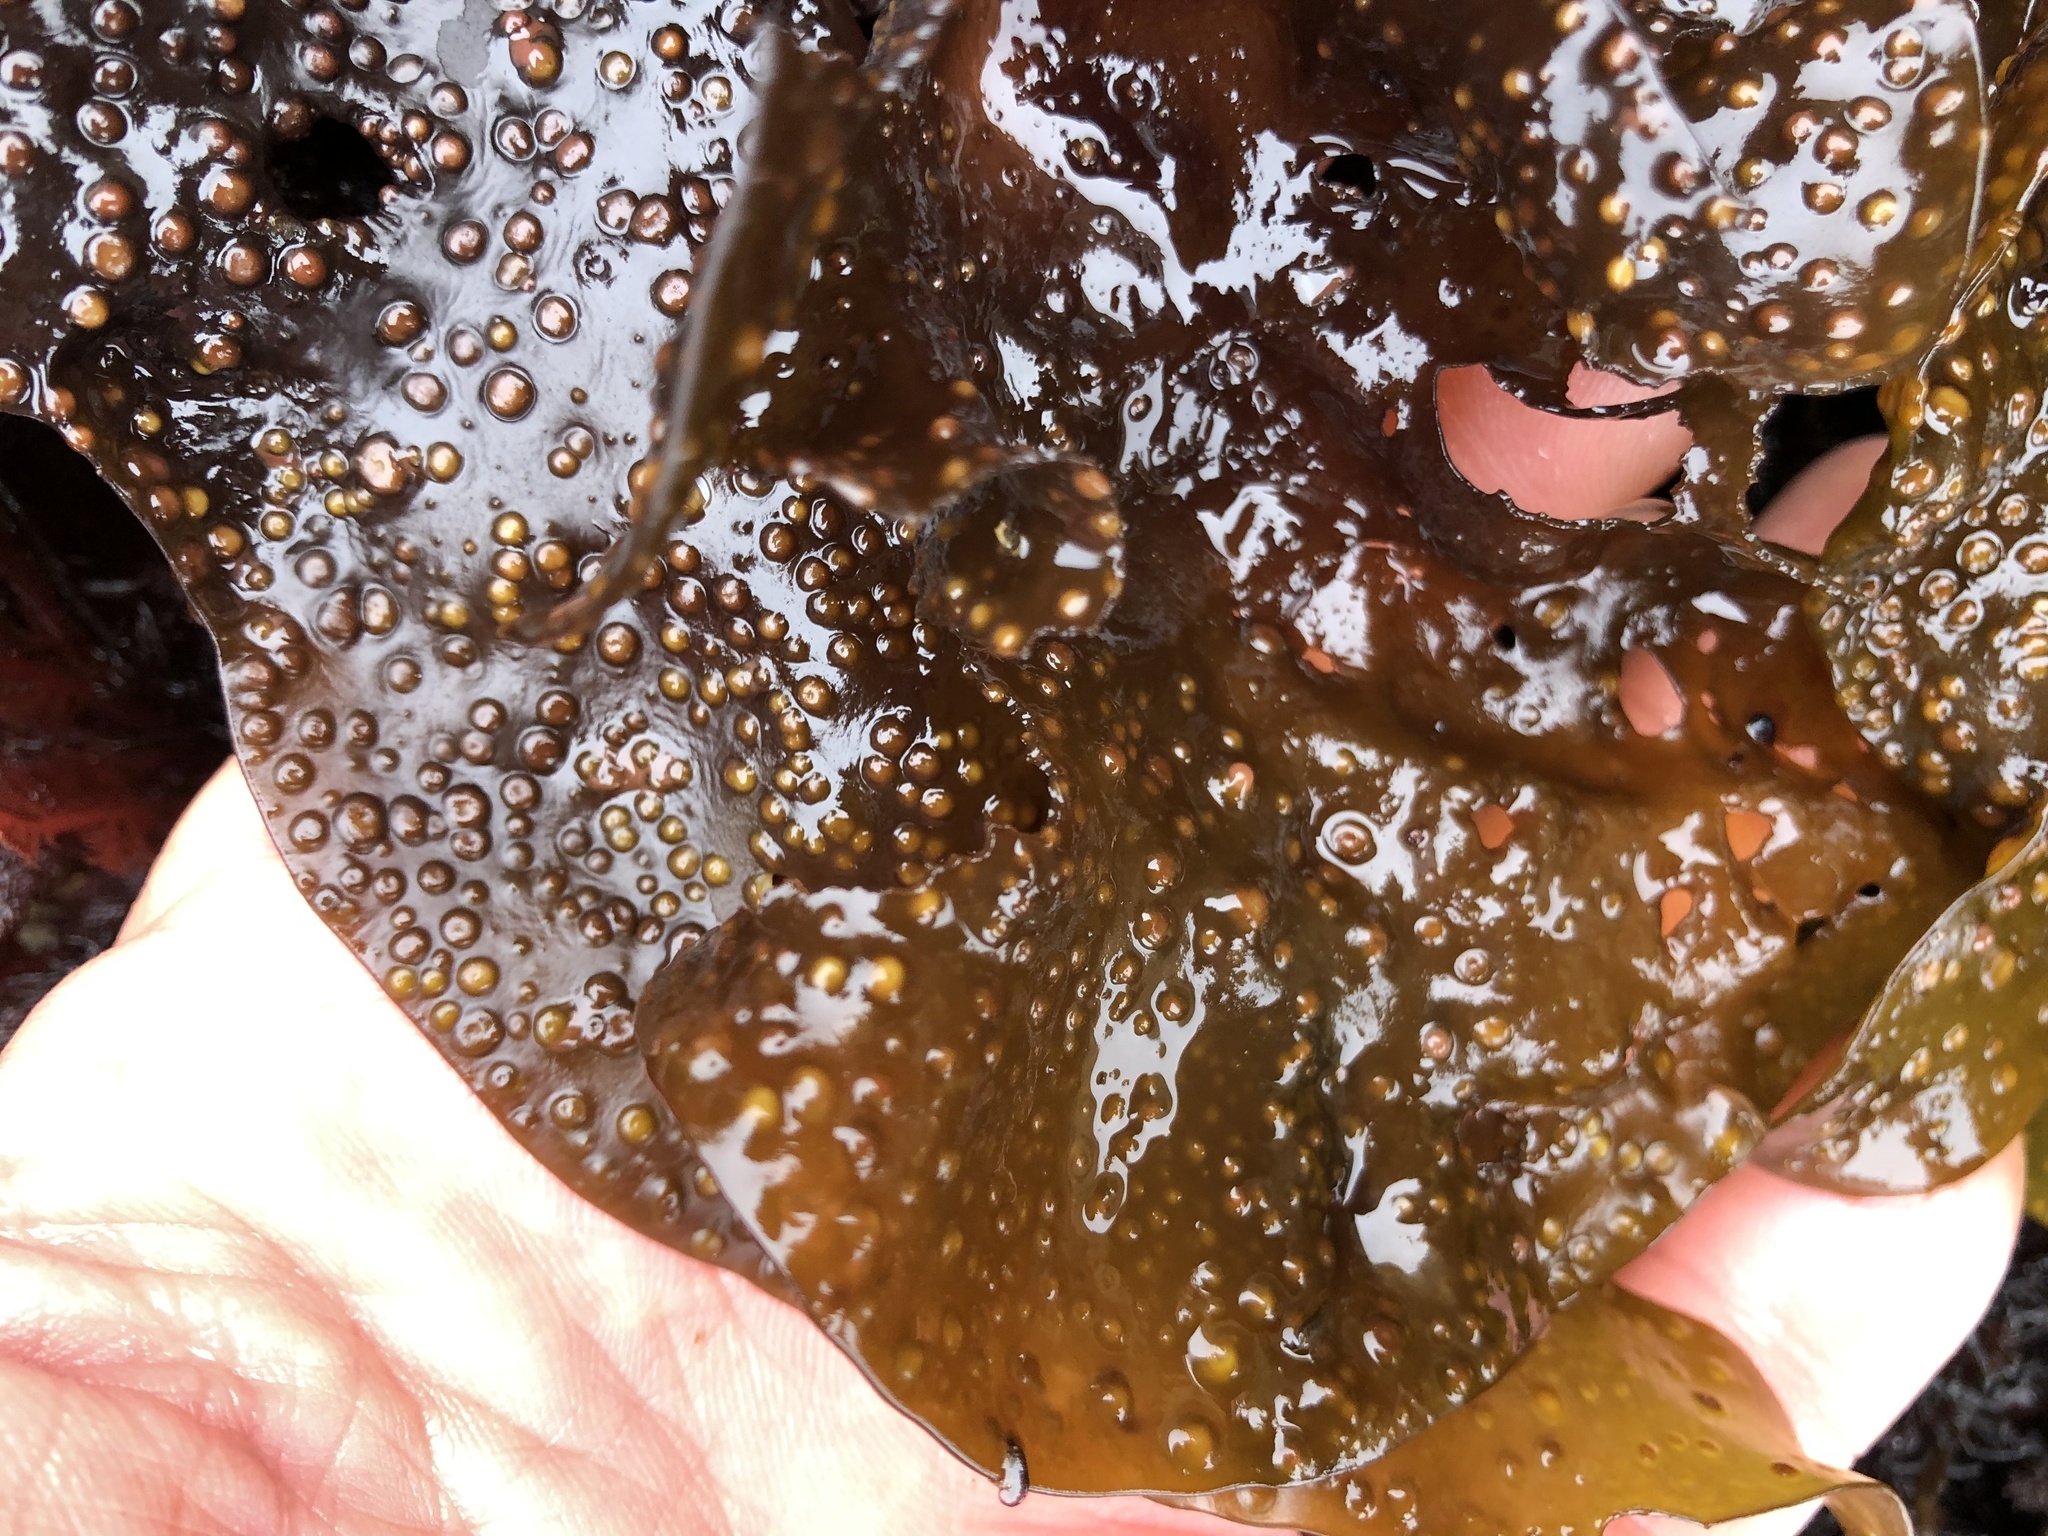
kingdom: Plantae
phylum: Rhodophyta
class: Florideophyceae
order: Gigartinales
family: Gigartinaceae
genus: Mazzaella
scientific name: Mazzaella oregona
